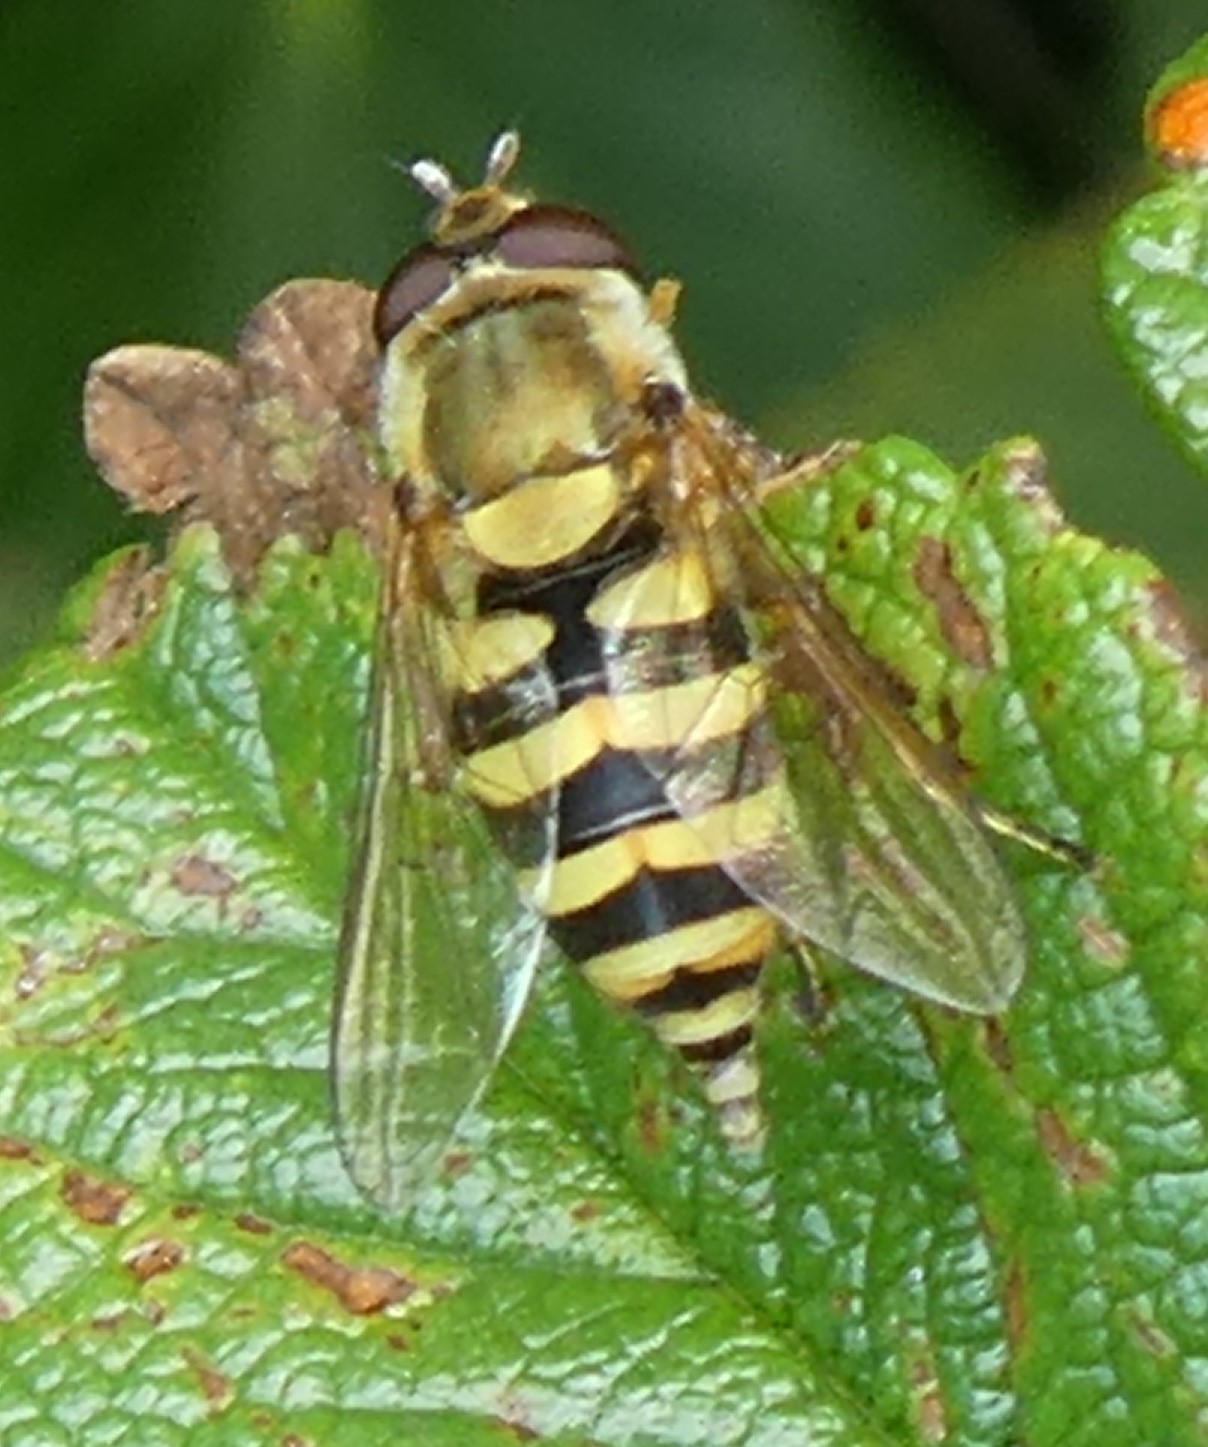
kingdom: Animalia
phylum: Arthropoda
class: Insecta
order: Diptera
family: Syrphidae
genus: Syrphus
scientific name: Syrphus
